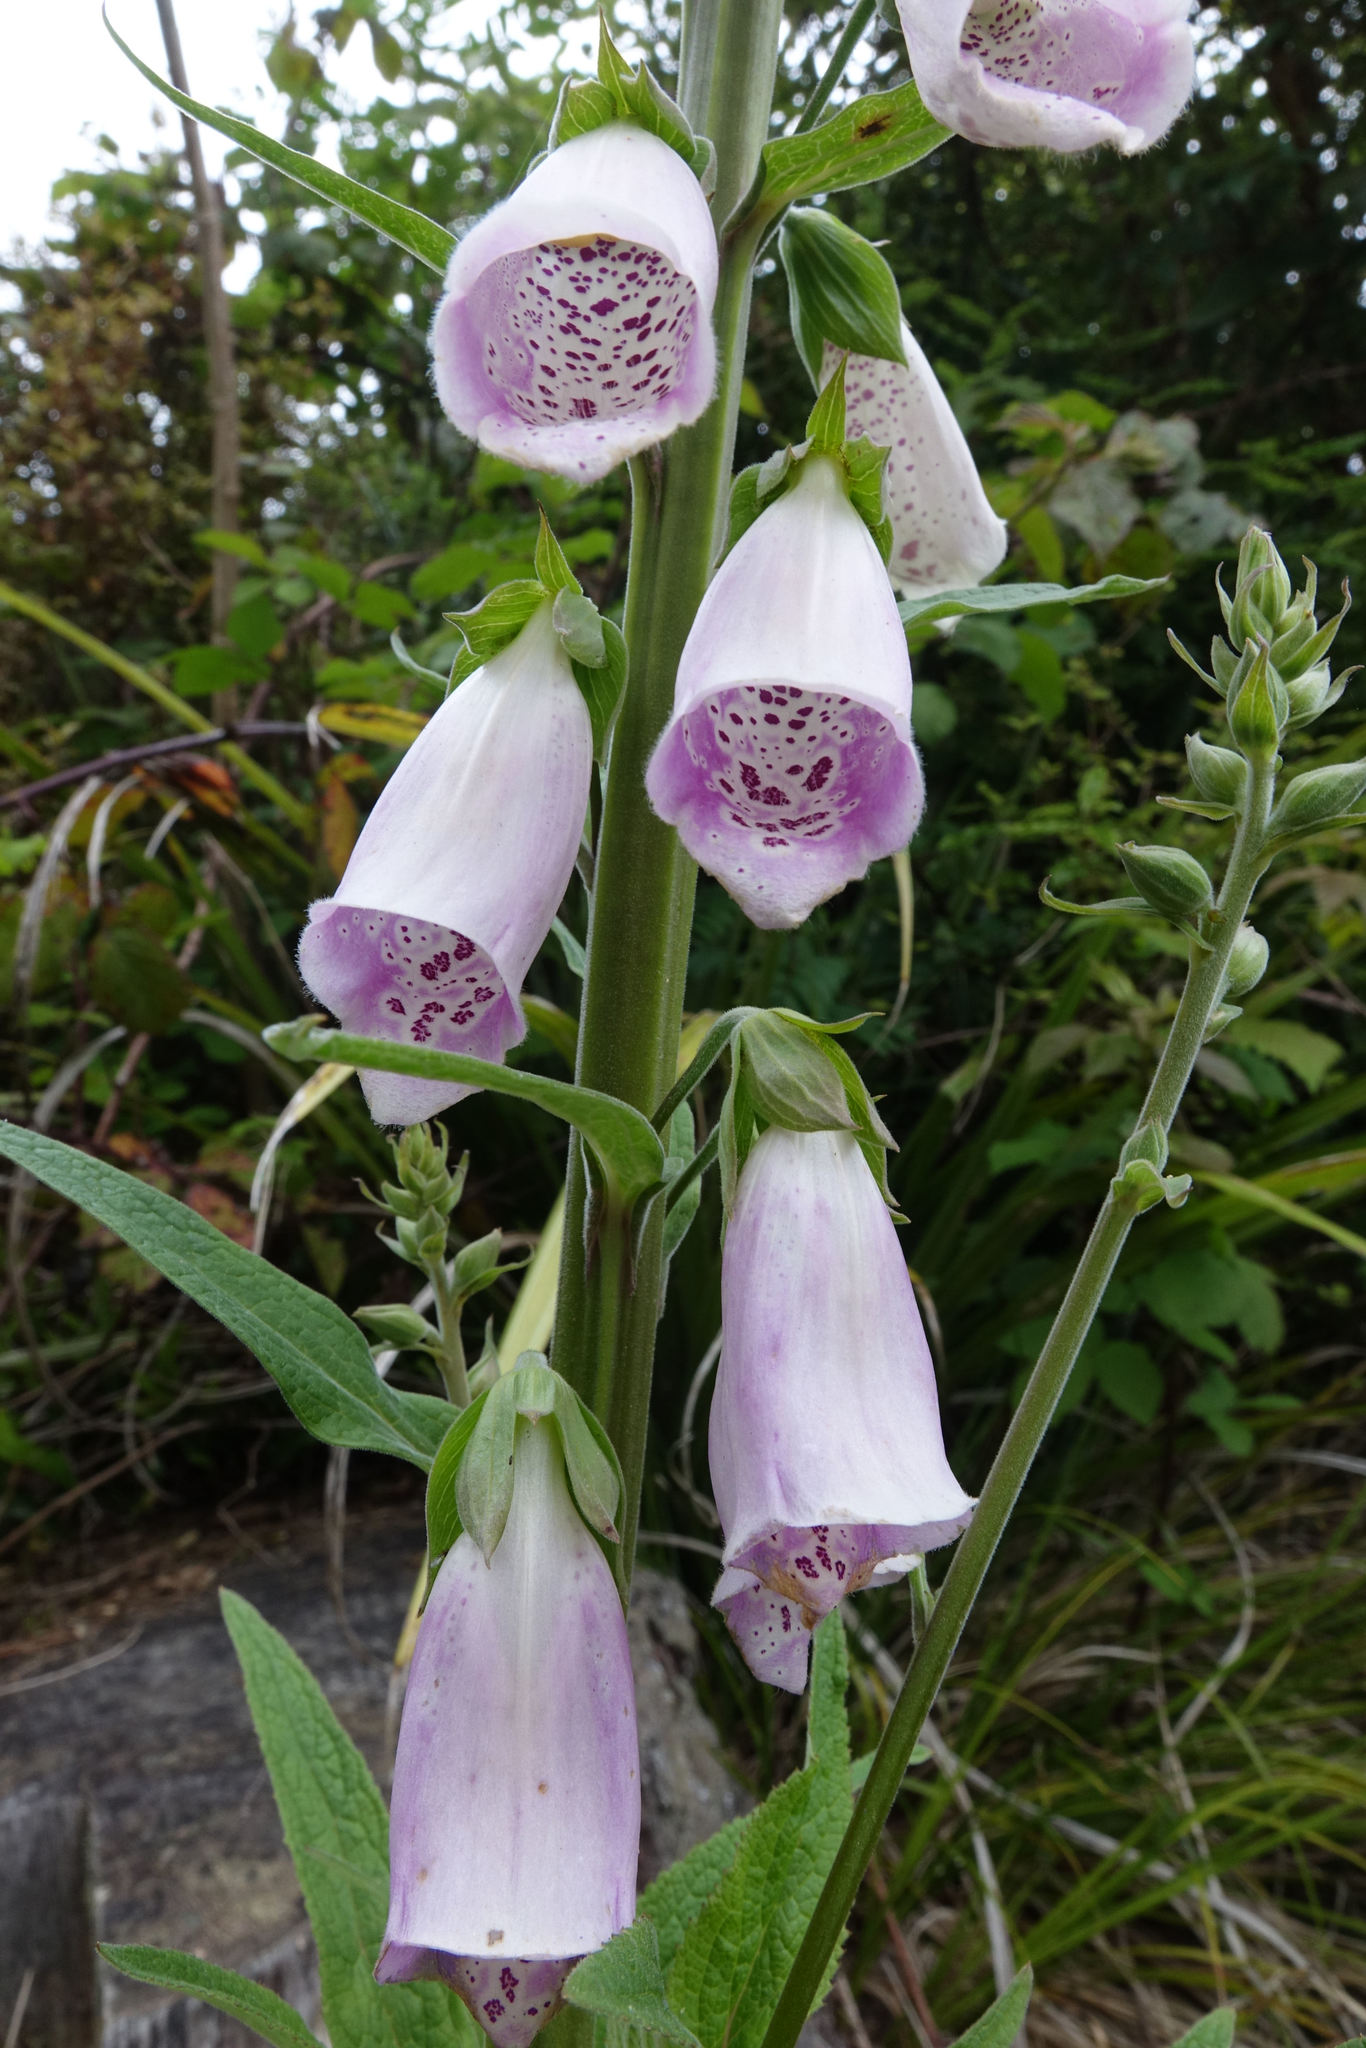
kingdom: Plantae
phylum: Tracheophyta
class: Magnoliopsida
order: Lamiales
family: Plantaginaceae
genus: Digitalis
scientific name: Digitalis purpurea
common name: Foxglove
